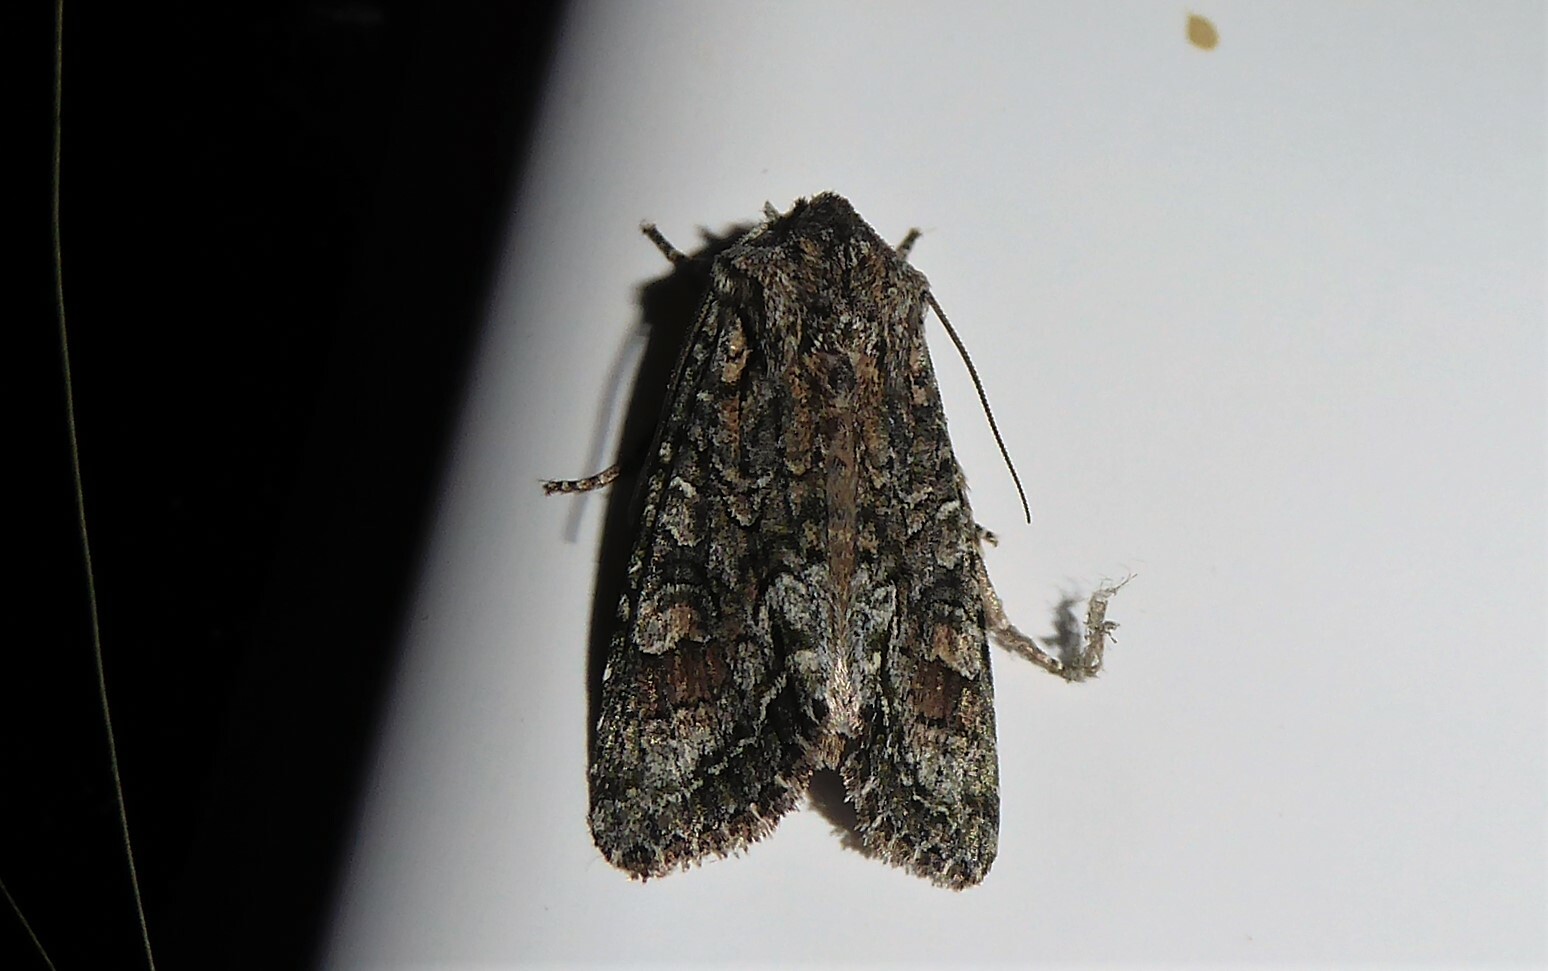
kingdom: Animalia
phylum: Arthropoda
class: Insecta
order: Lepidoptera
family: Noctuidae
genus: Ichneutica
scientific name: Ichneutica mutans
